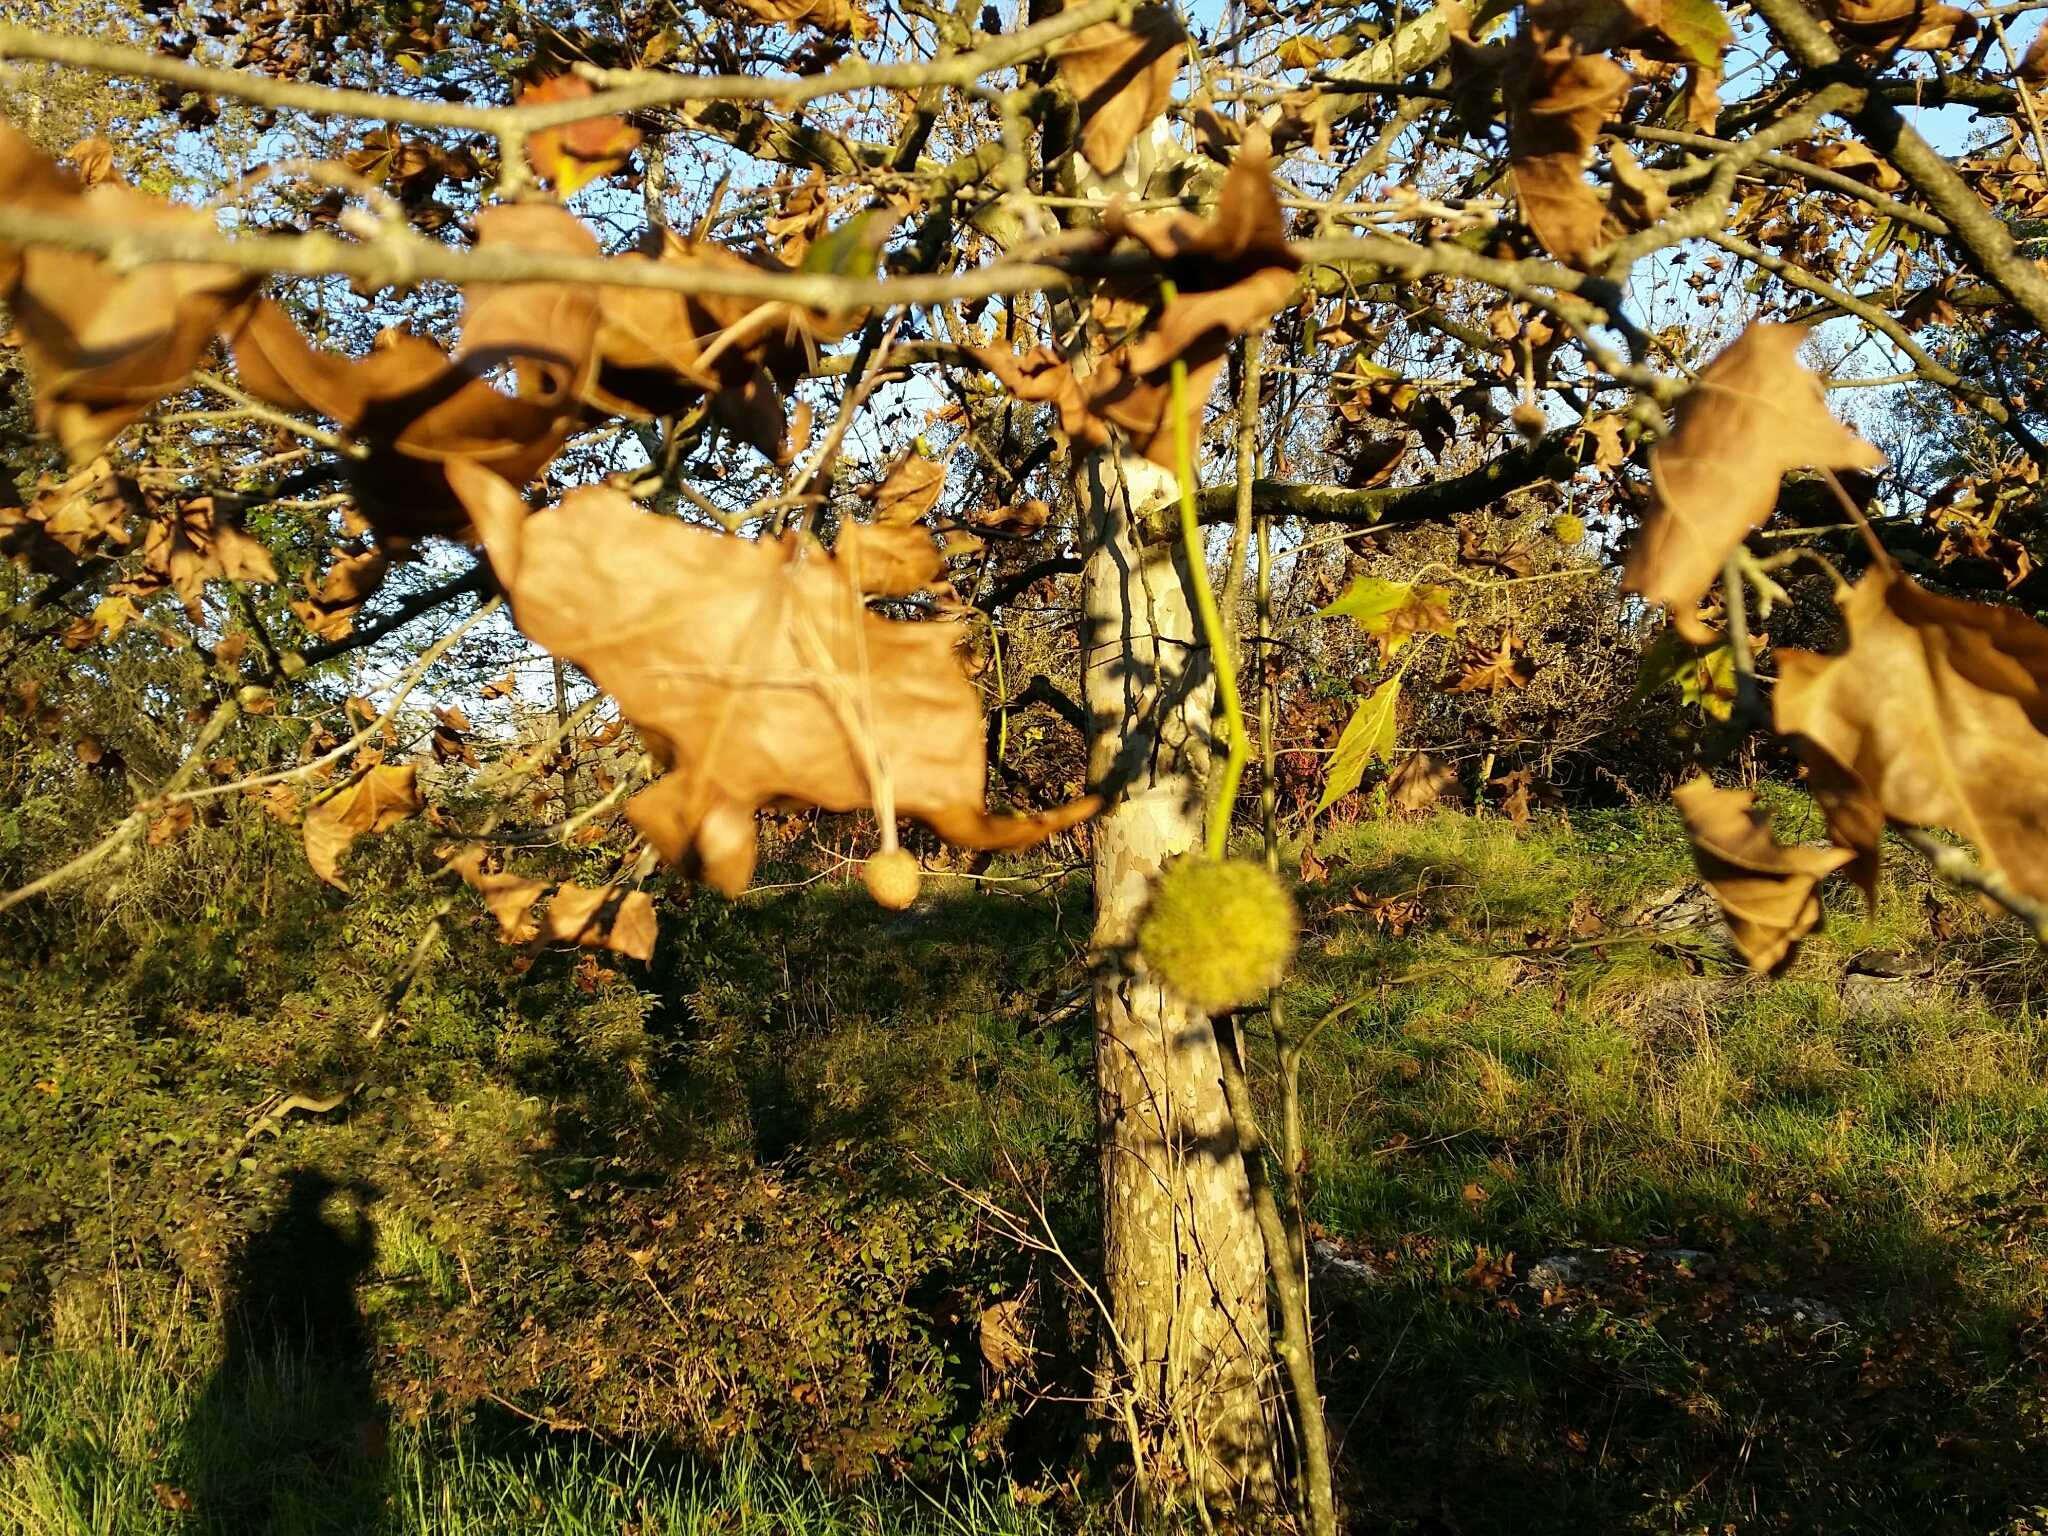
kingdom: Plantae
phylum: Tracheophyta
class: Magnoliopsida
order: Proteales
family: Platanaceae
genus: Platanus
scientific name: Platanus hispanica
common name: London plane
